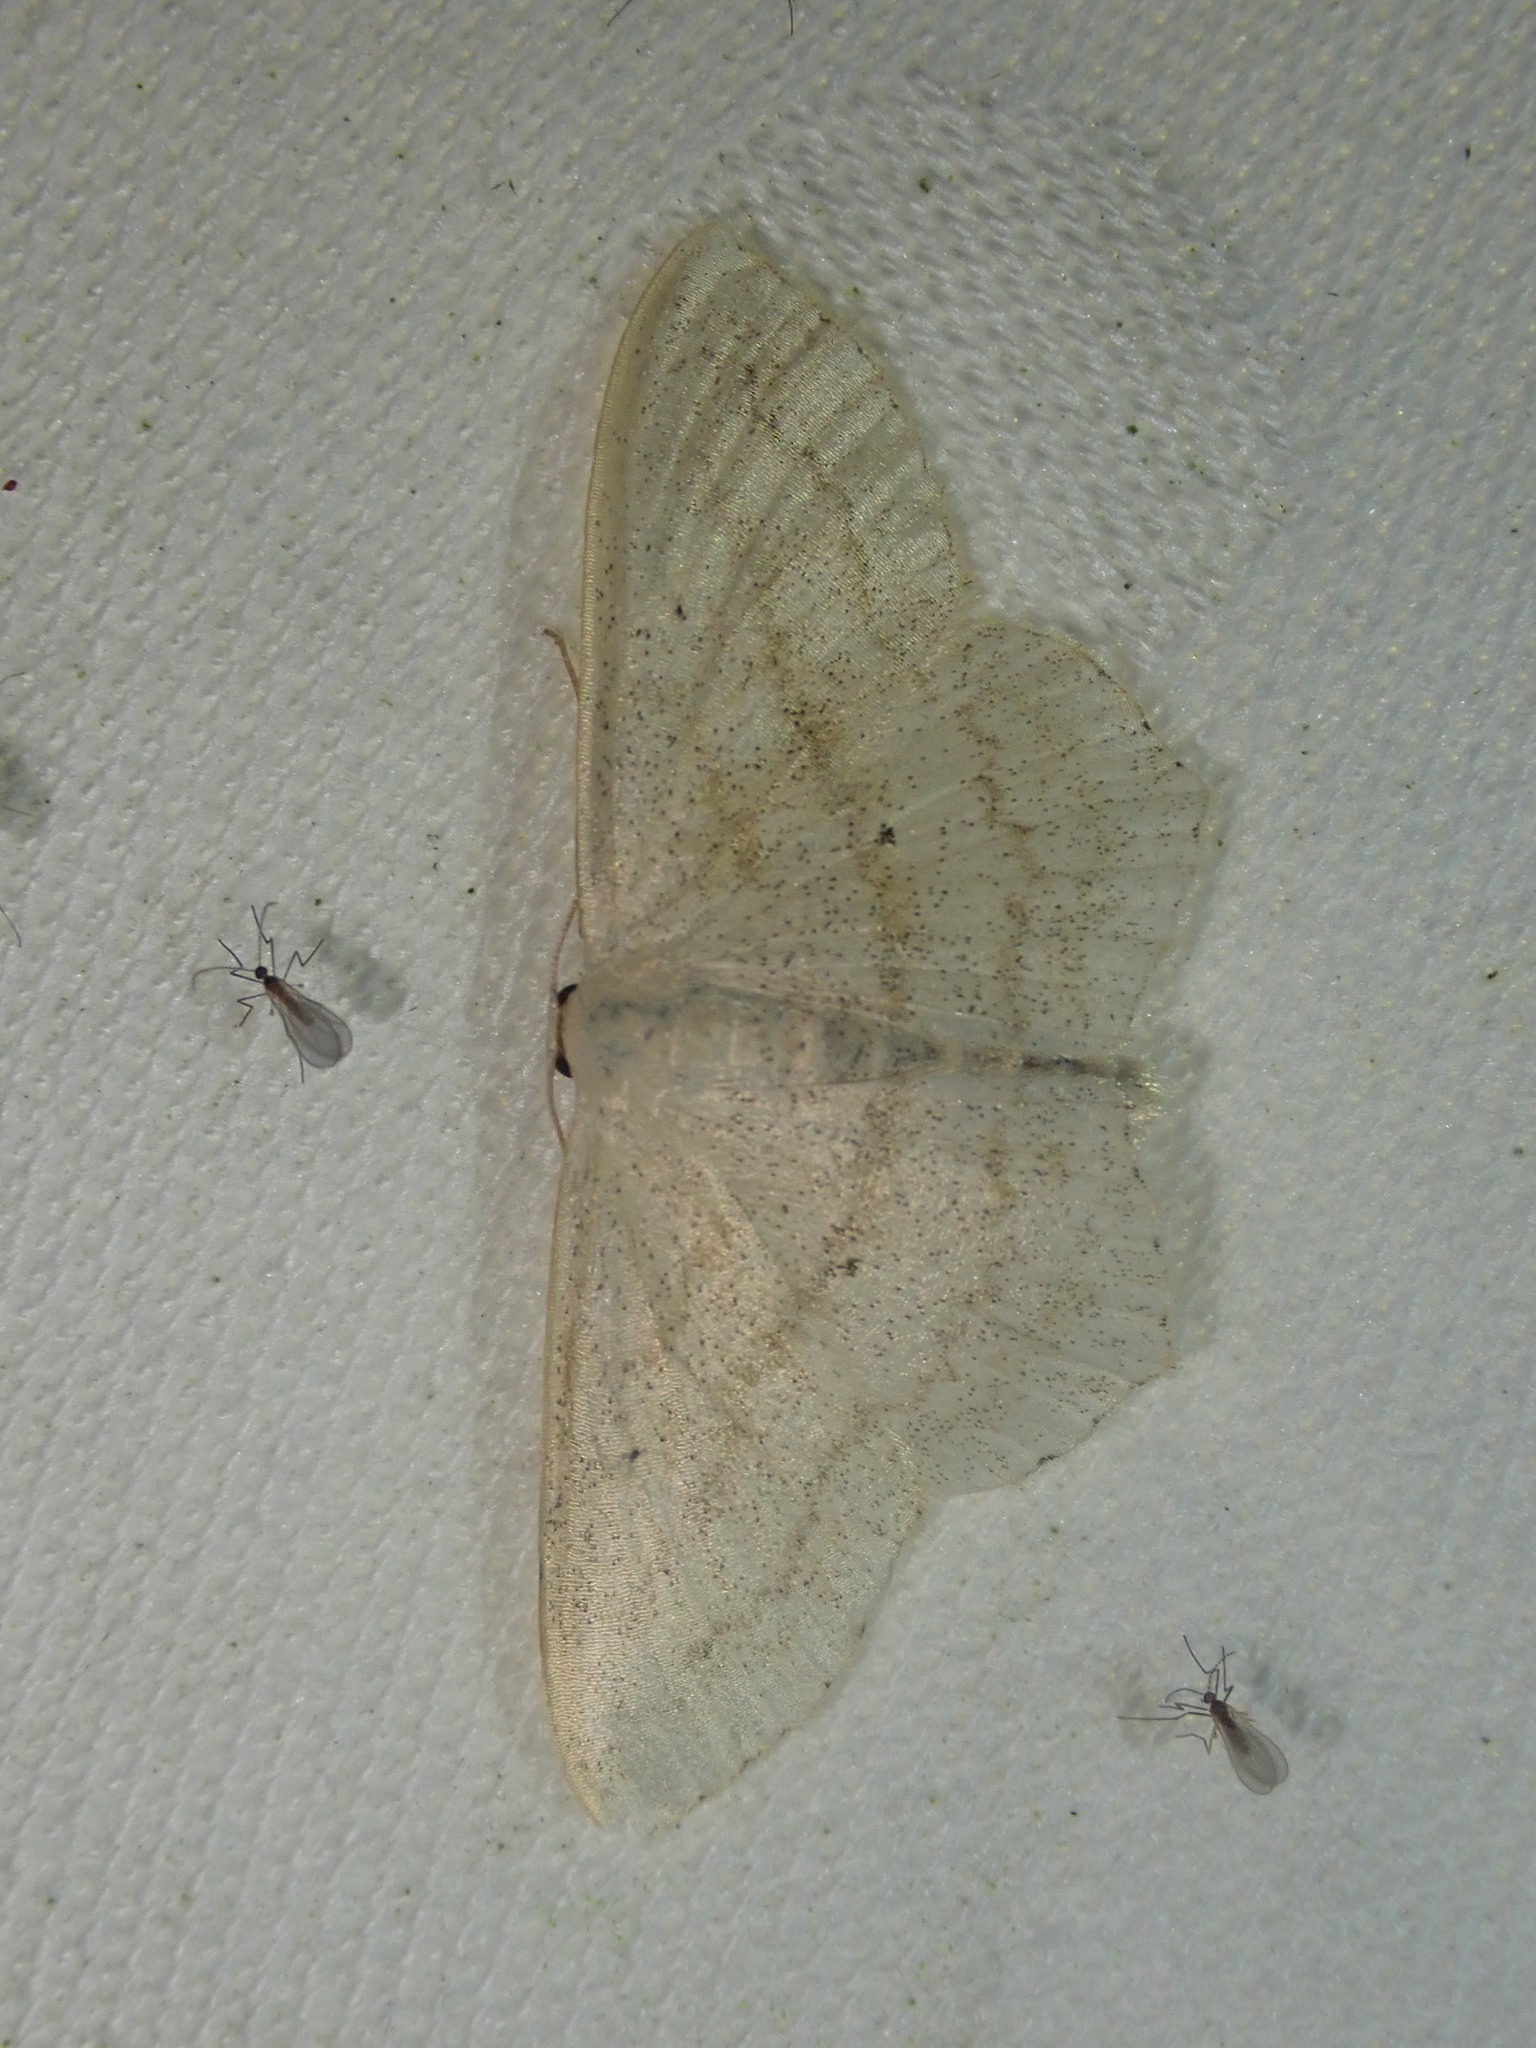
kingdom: Animalia
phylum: Arthropoda
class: Insecta
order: Lepidoptera
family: Geometridae
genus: Scopula
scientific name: Scopula nigropunctata
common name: Sub-angled wave
